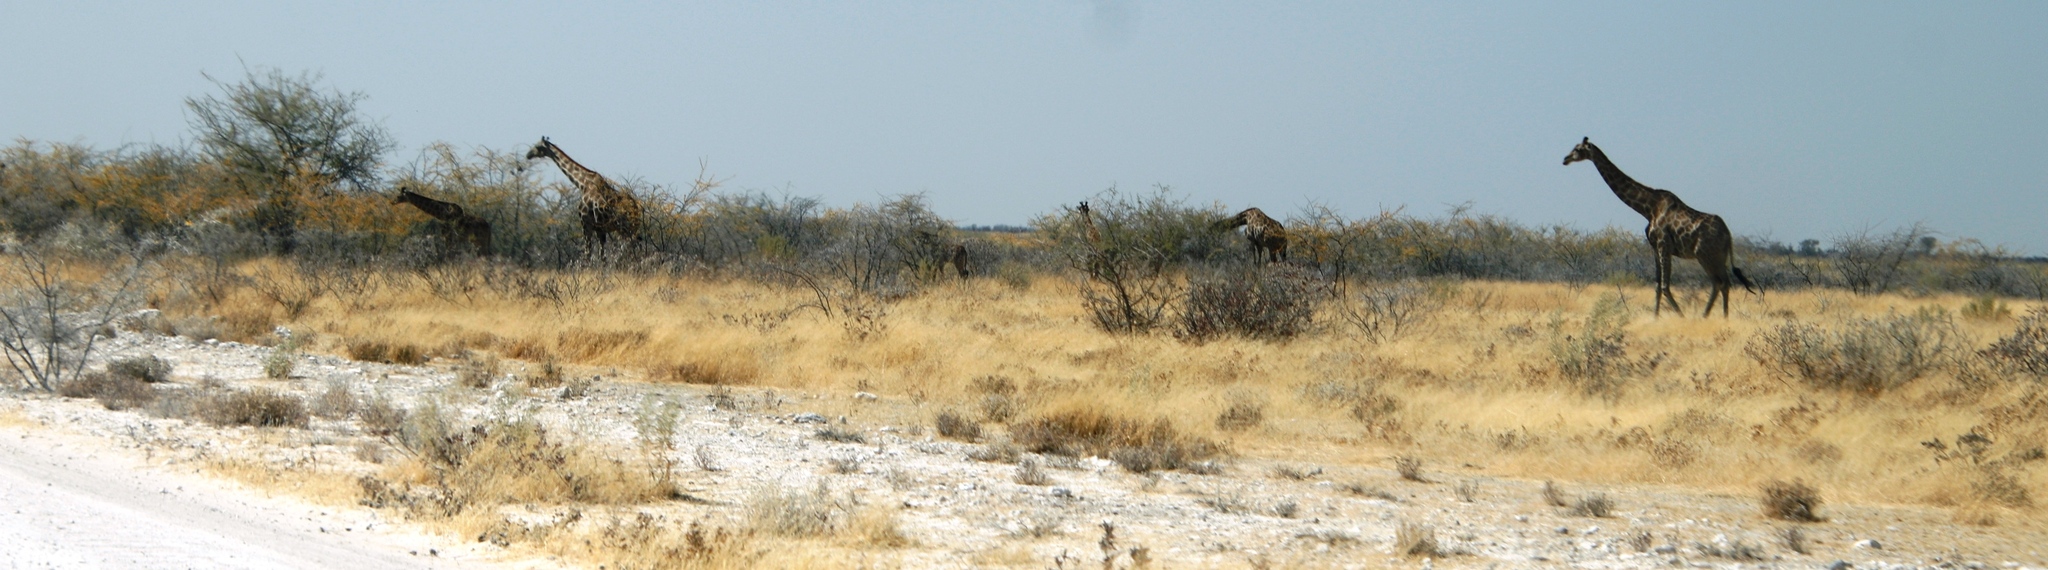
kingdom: Animalia
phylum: Chordata
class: Mammalia
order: Artiodactyla
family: Giraffidae
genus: Giraffa
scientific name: Giraffa giraffa
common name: Southern giraffe
